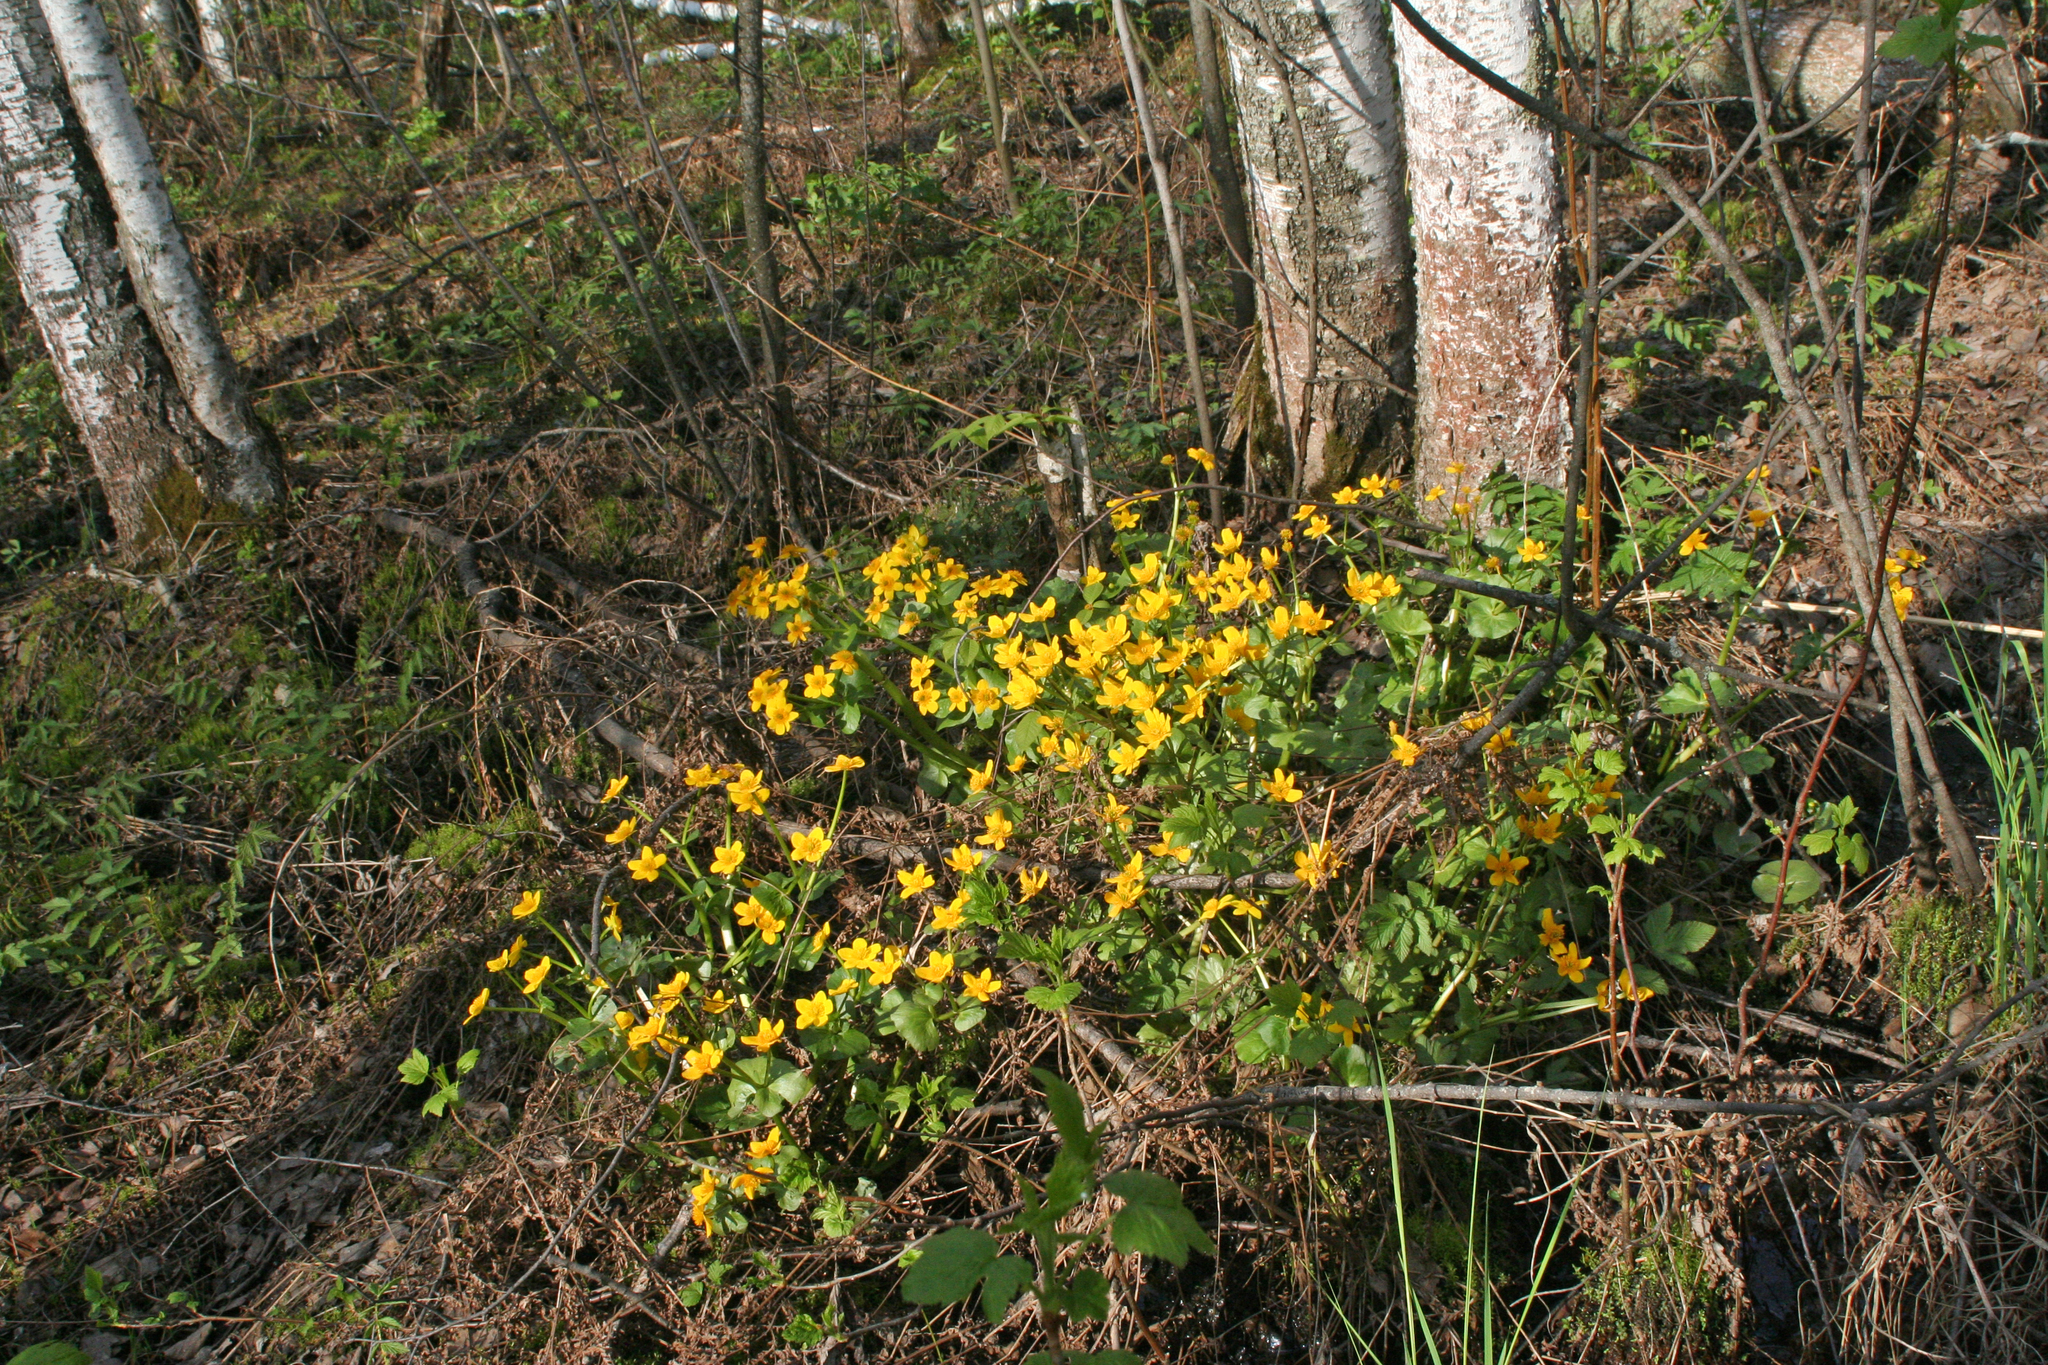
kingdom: Plantae
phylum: Tracheophyta
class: Magnoliopsida
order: Ranunculales
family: Ranunculaceae
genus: Caltha
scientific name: Caltha palustris
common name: Marsh marigold
